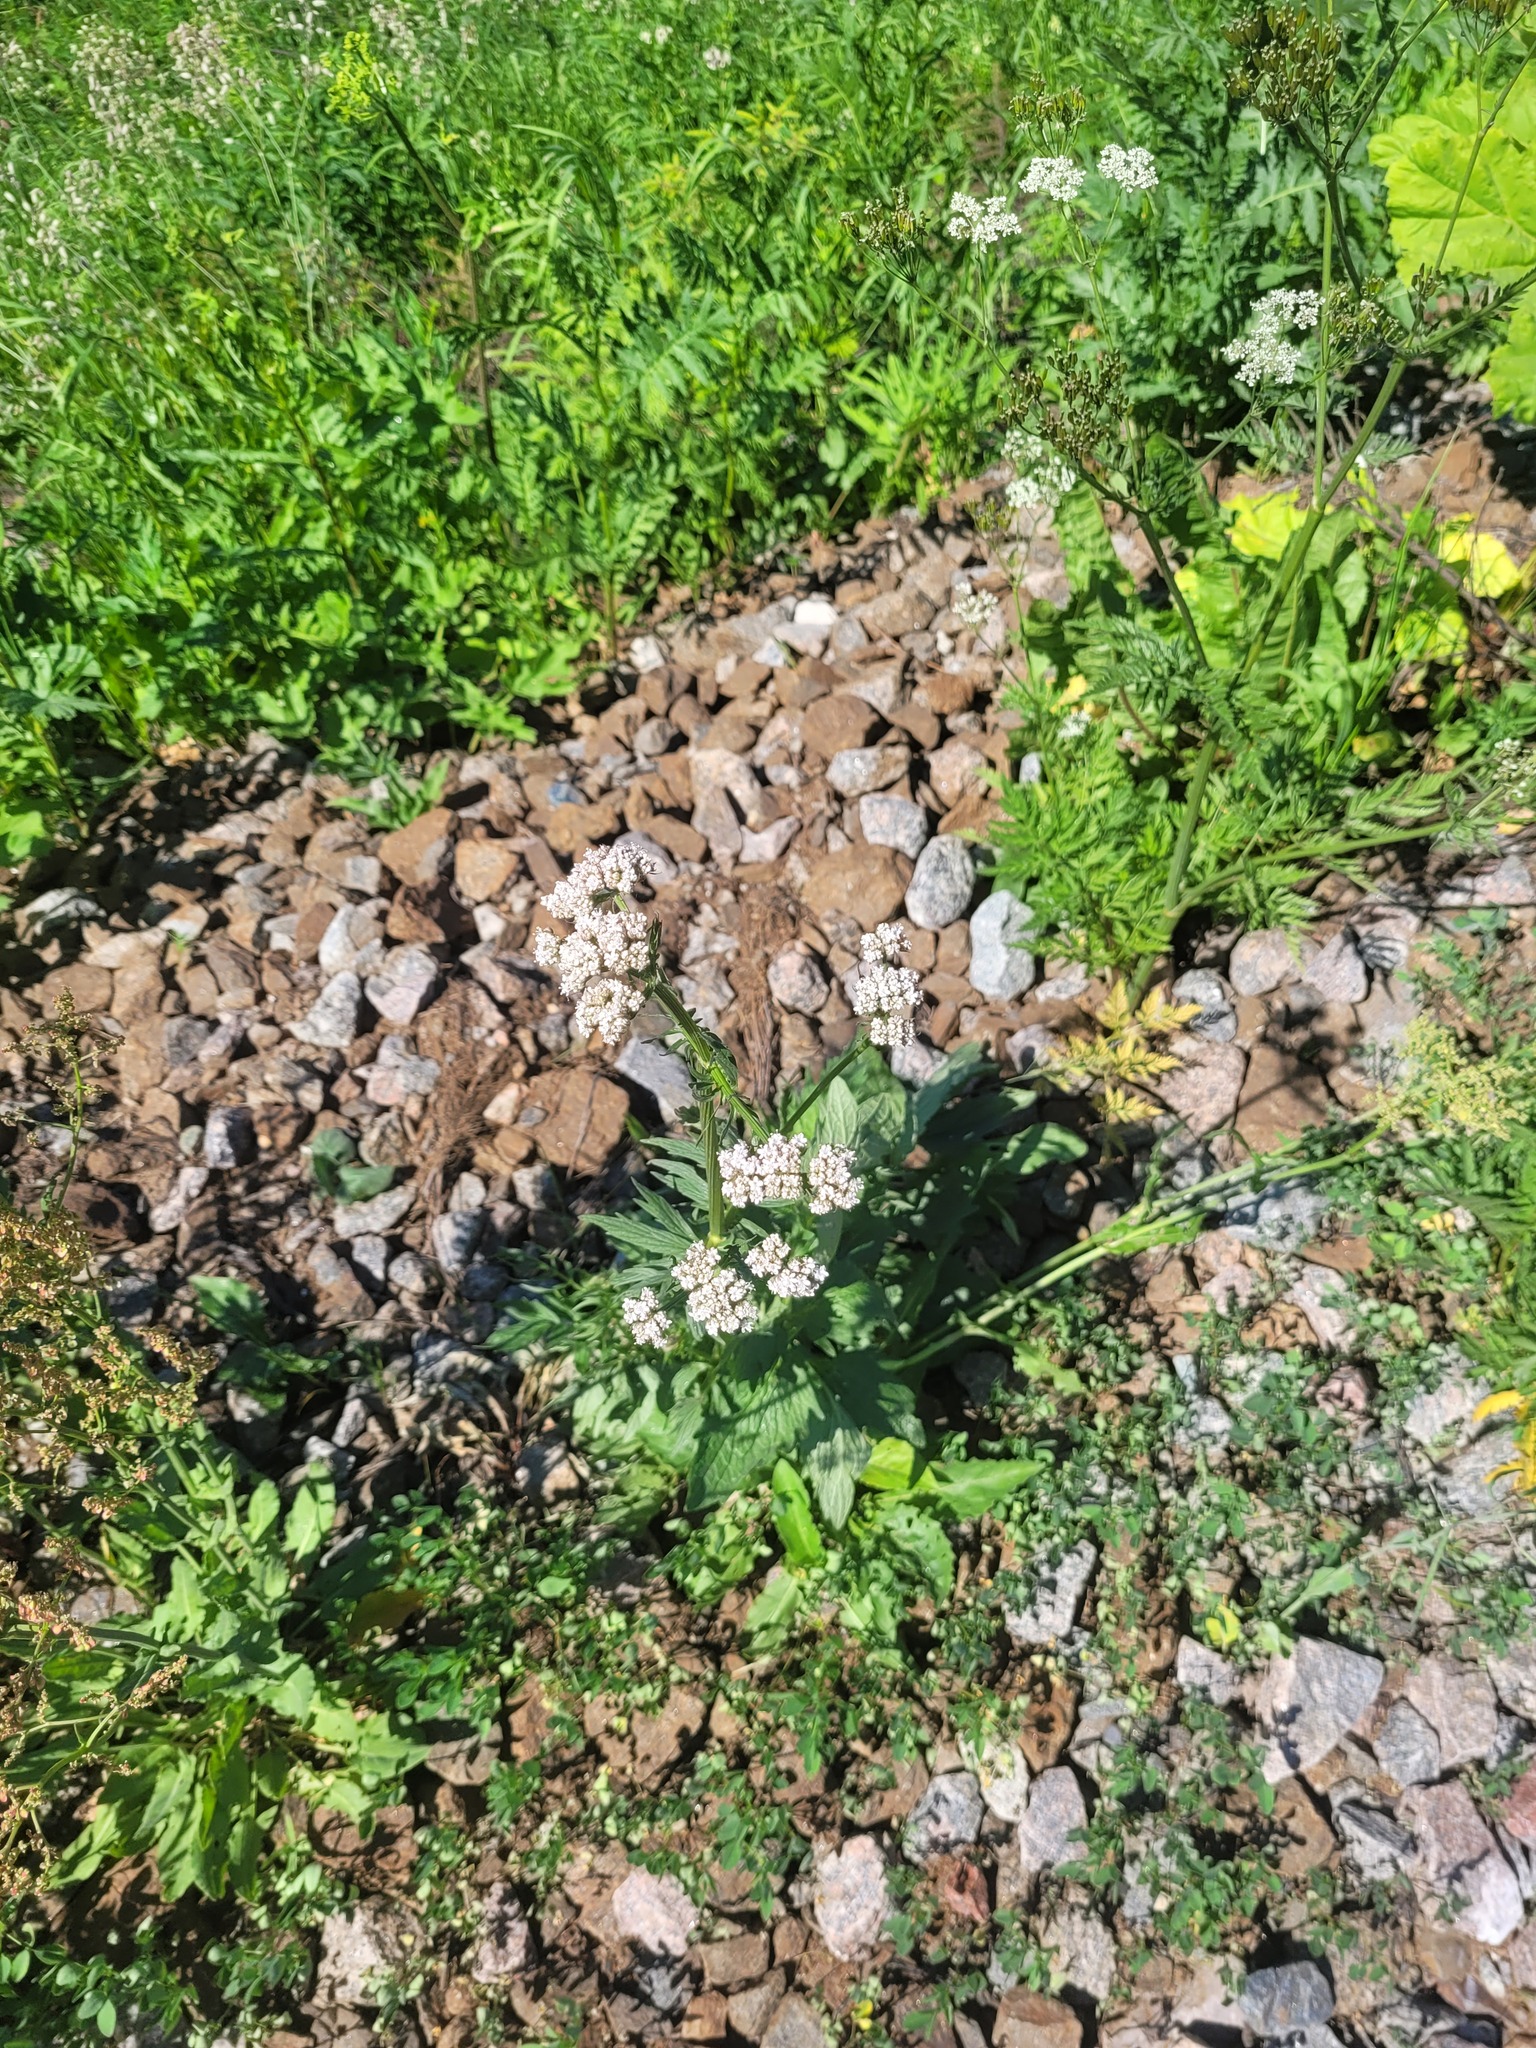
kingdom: Plantae
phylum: Tracheophyta
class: Magnoliopsida
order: Dipsacales
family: Caprifoliaceae
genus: Valeriana
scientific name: Valeriana officinalis
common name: Common valerian
